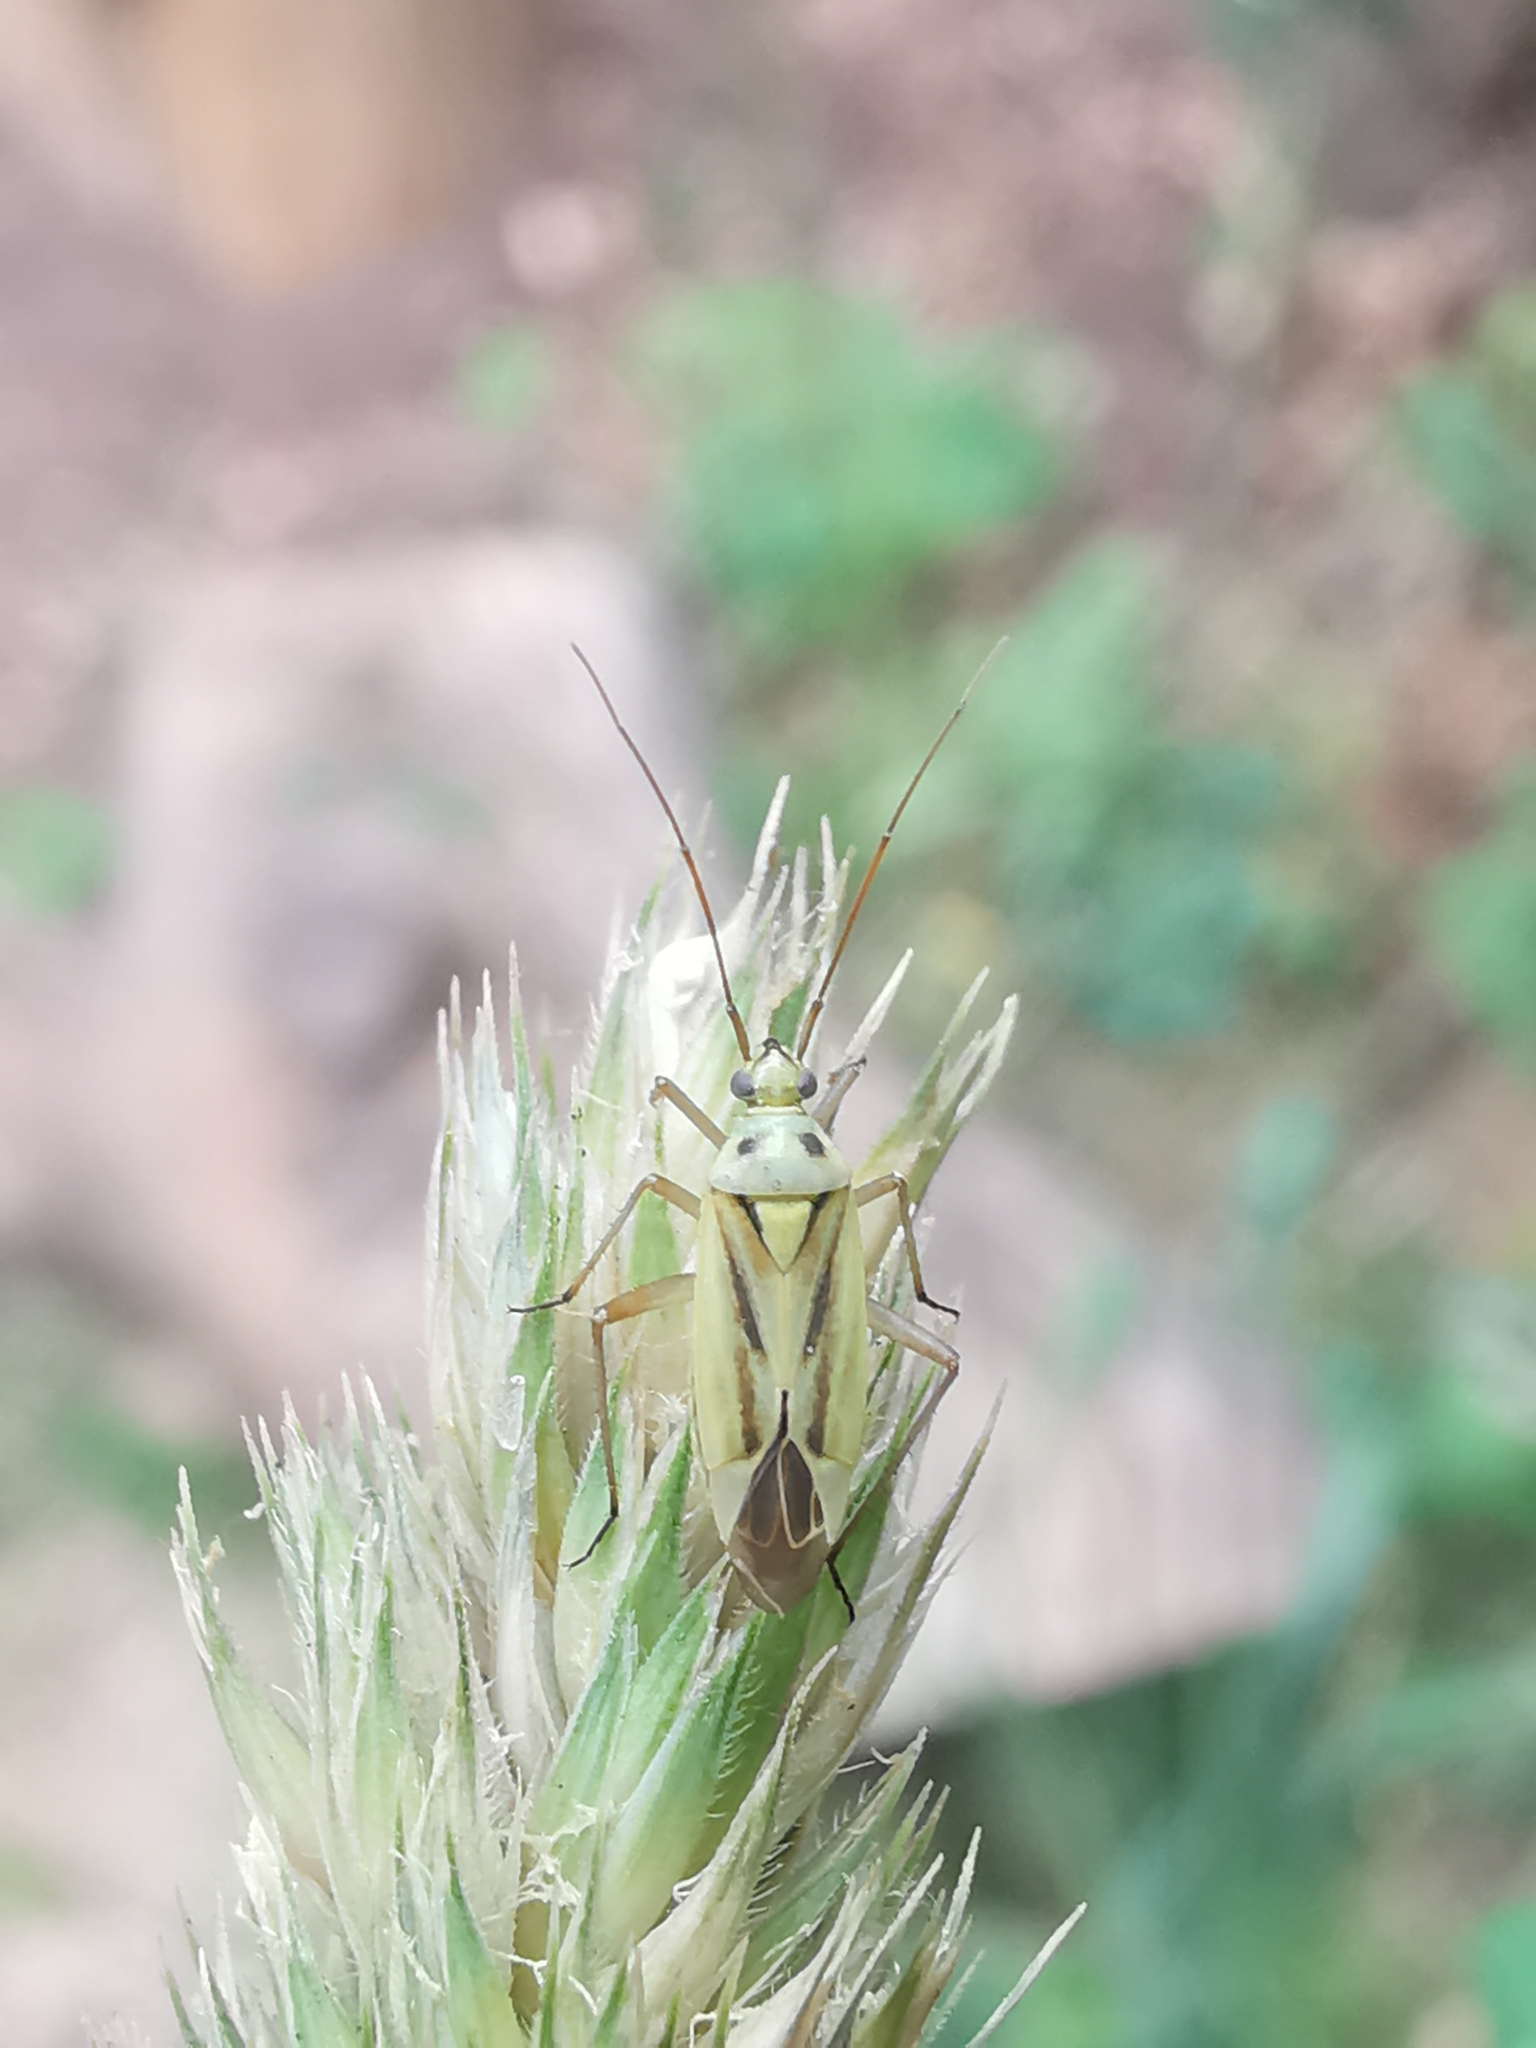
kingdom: Animalia
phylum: Arthropoda
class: Insecta
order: Hemiptera
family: Miridae
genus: Stenotus
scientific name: Stenotus binotatus
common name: Plant bug
